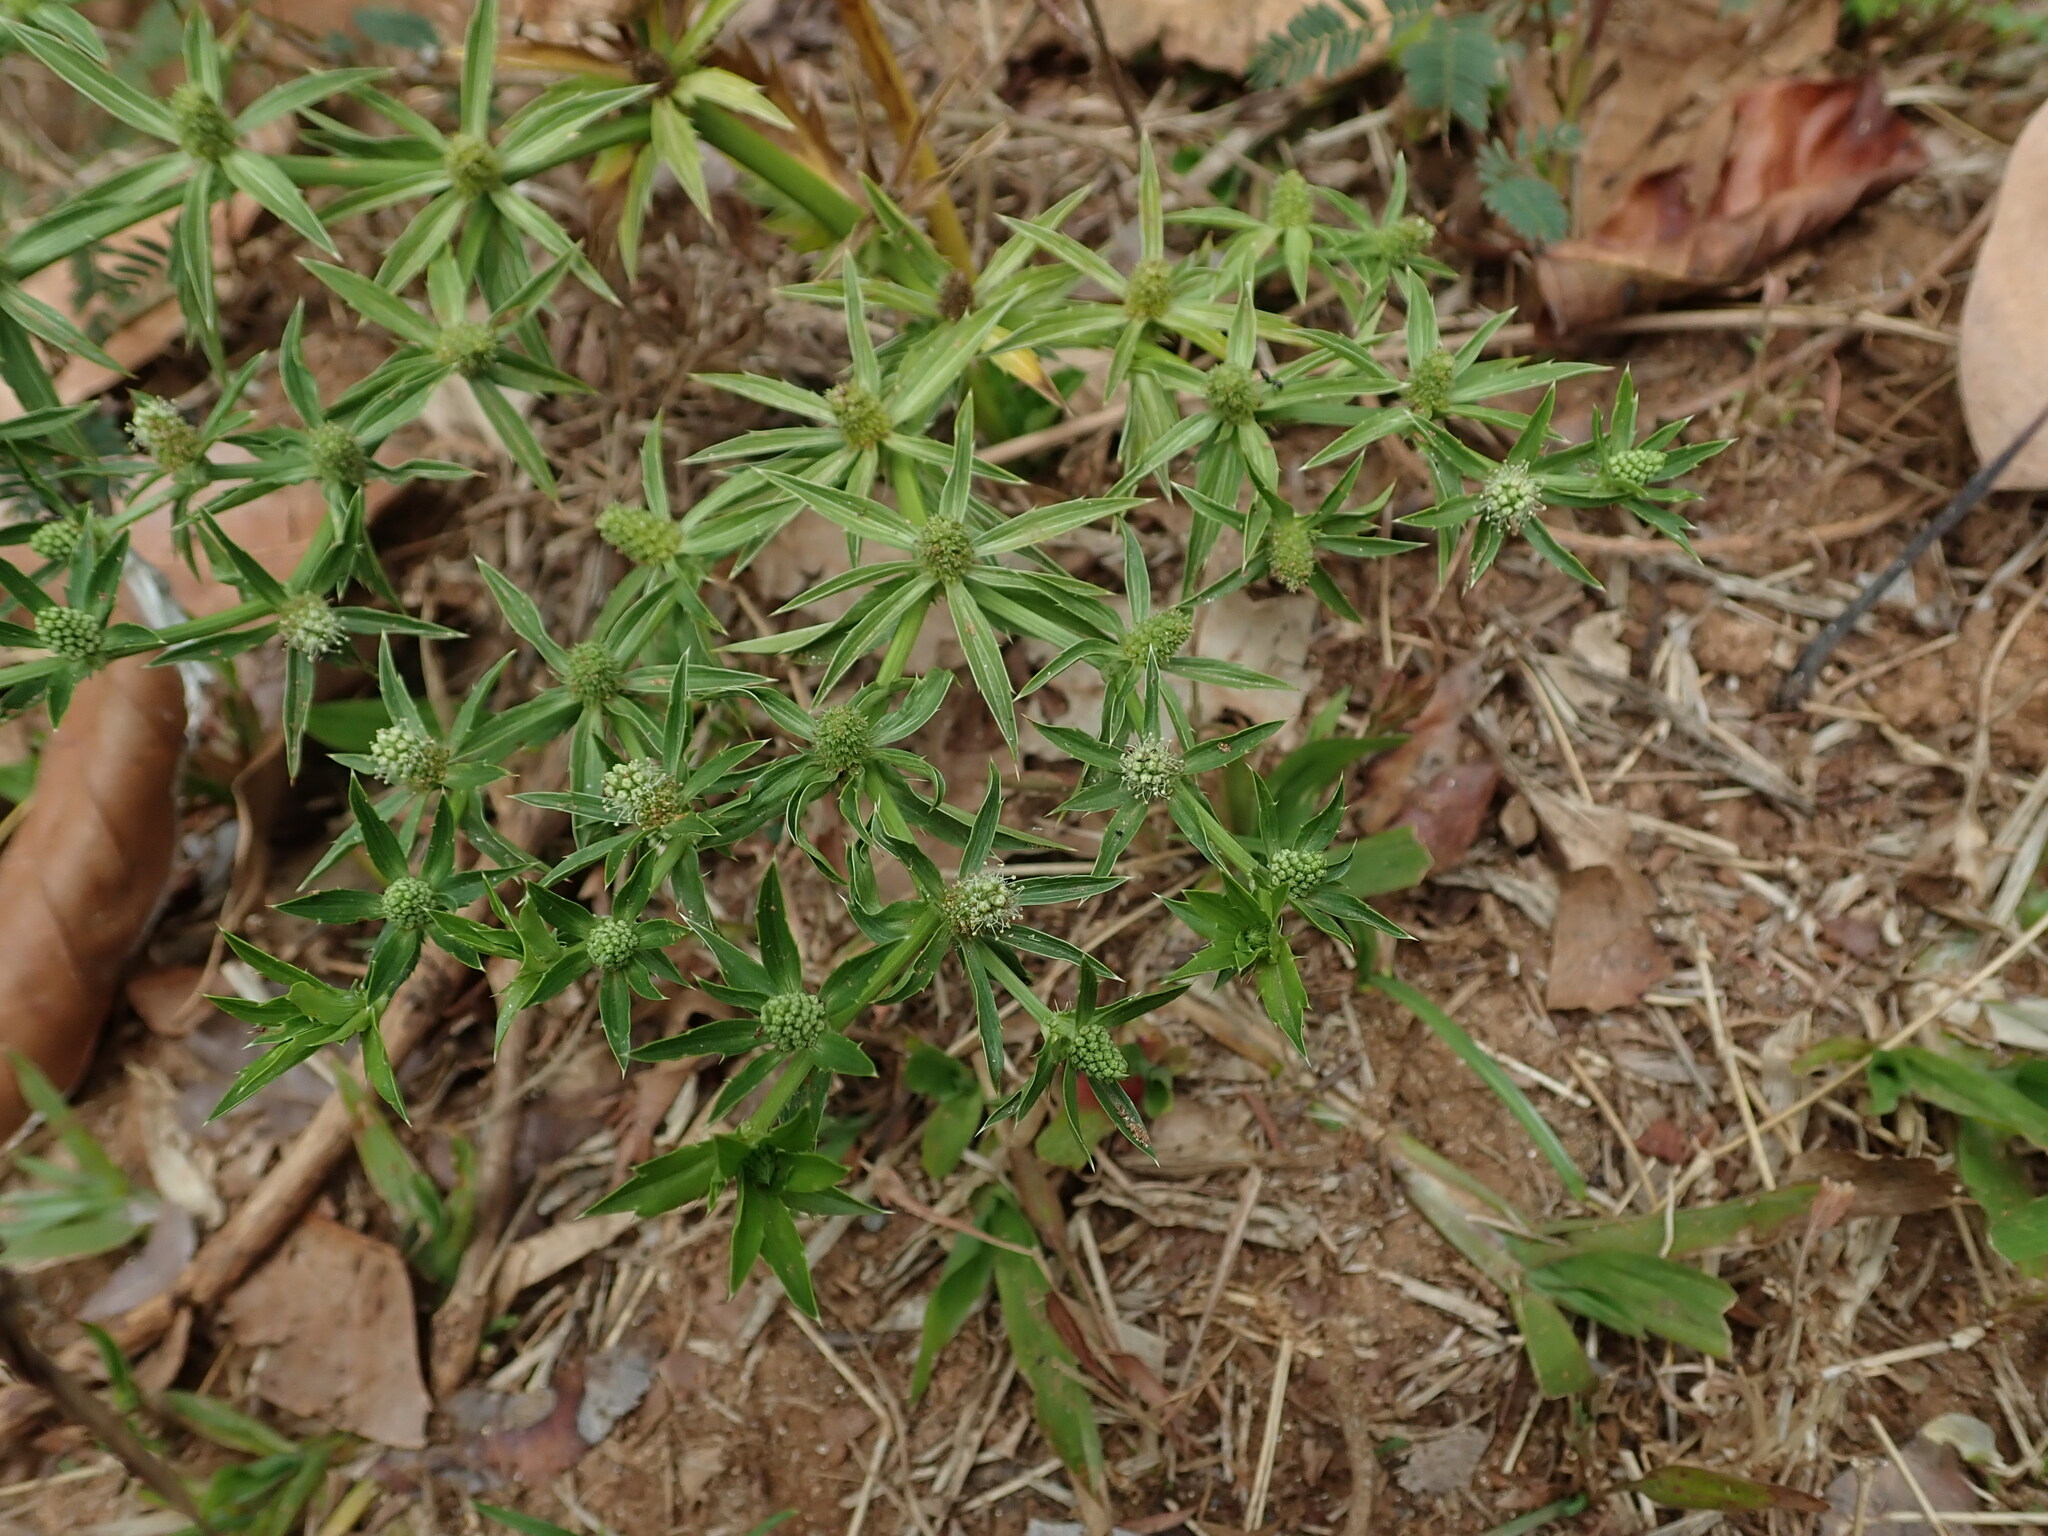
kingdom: Plantae
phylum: Tracheophyta
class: Magnoliopsida
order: Apiales
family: Apiaceae
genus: Eryngium
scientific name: Eryngium foetidum
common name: Fitweed
